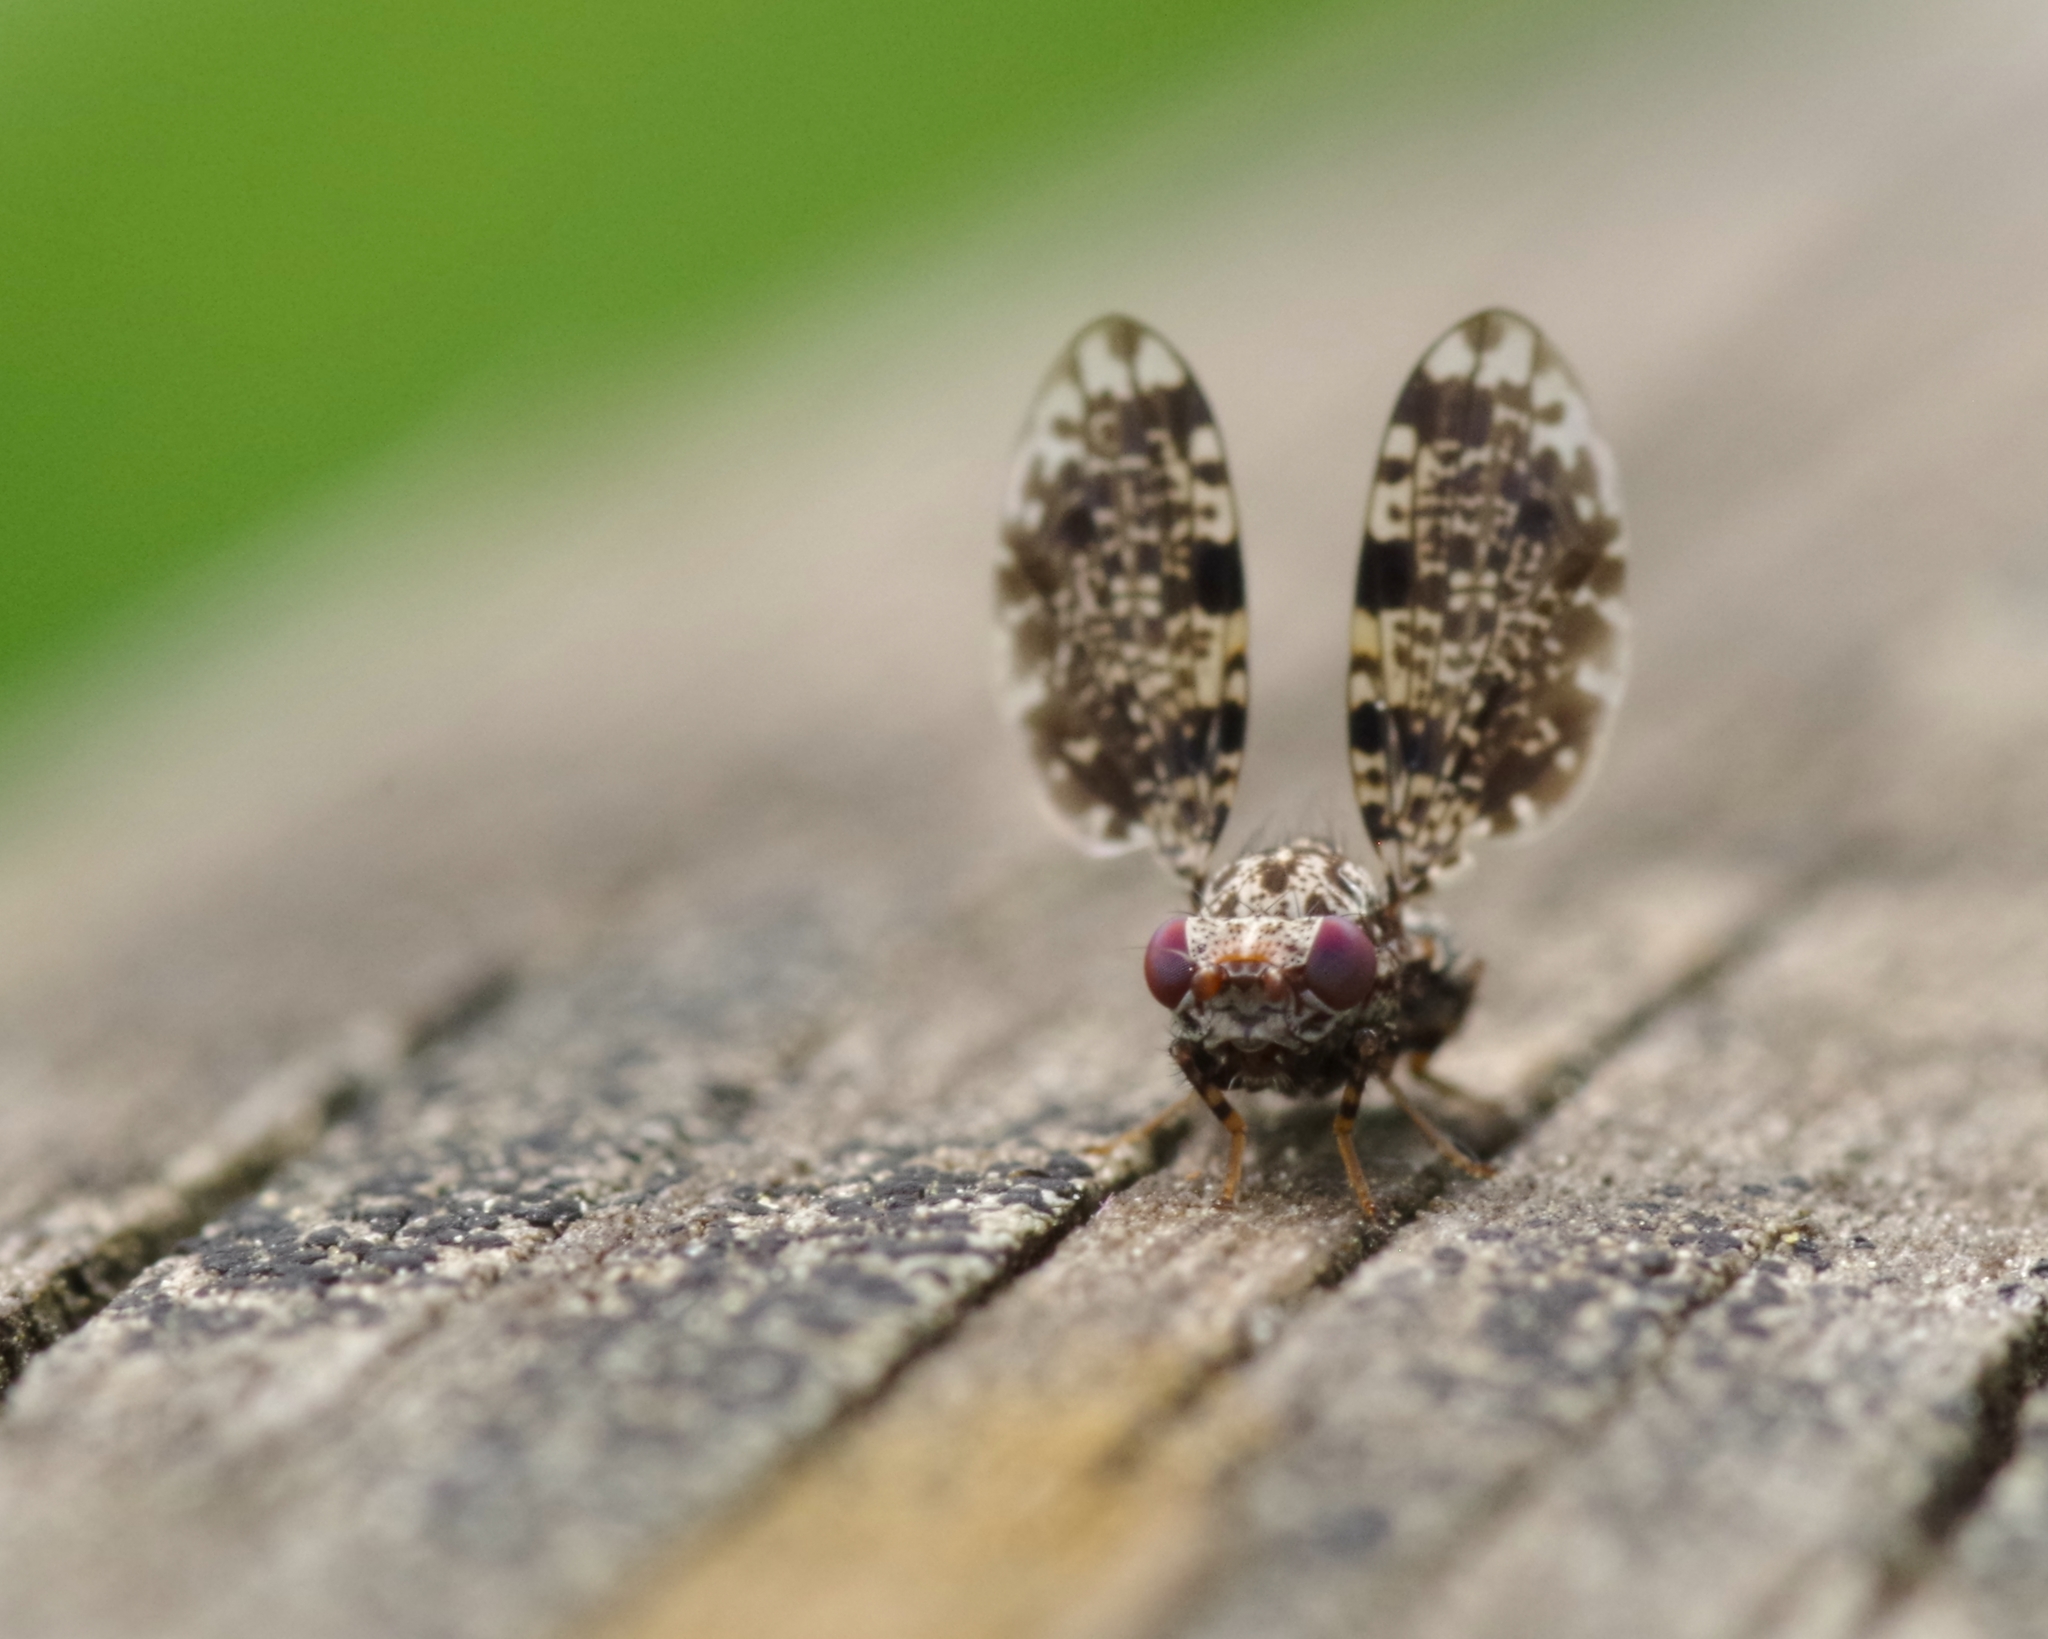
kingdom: Animalia
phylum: Arthropoda
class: Insecta
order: Diptera
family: Ulidiidae
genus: Callopistromyia
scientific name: Callopistromyia annulipes
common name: Peacock fly
